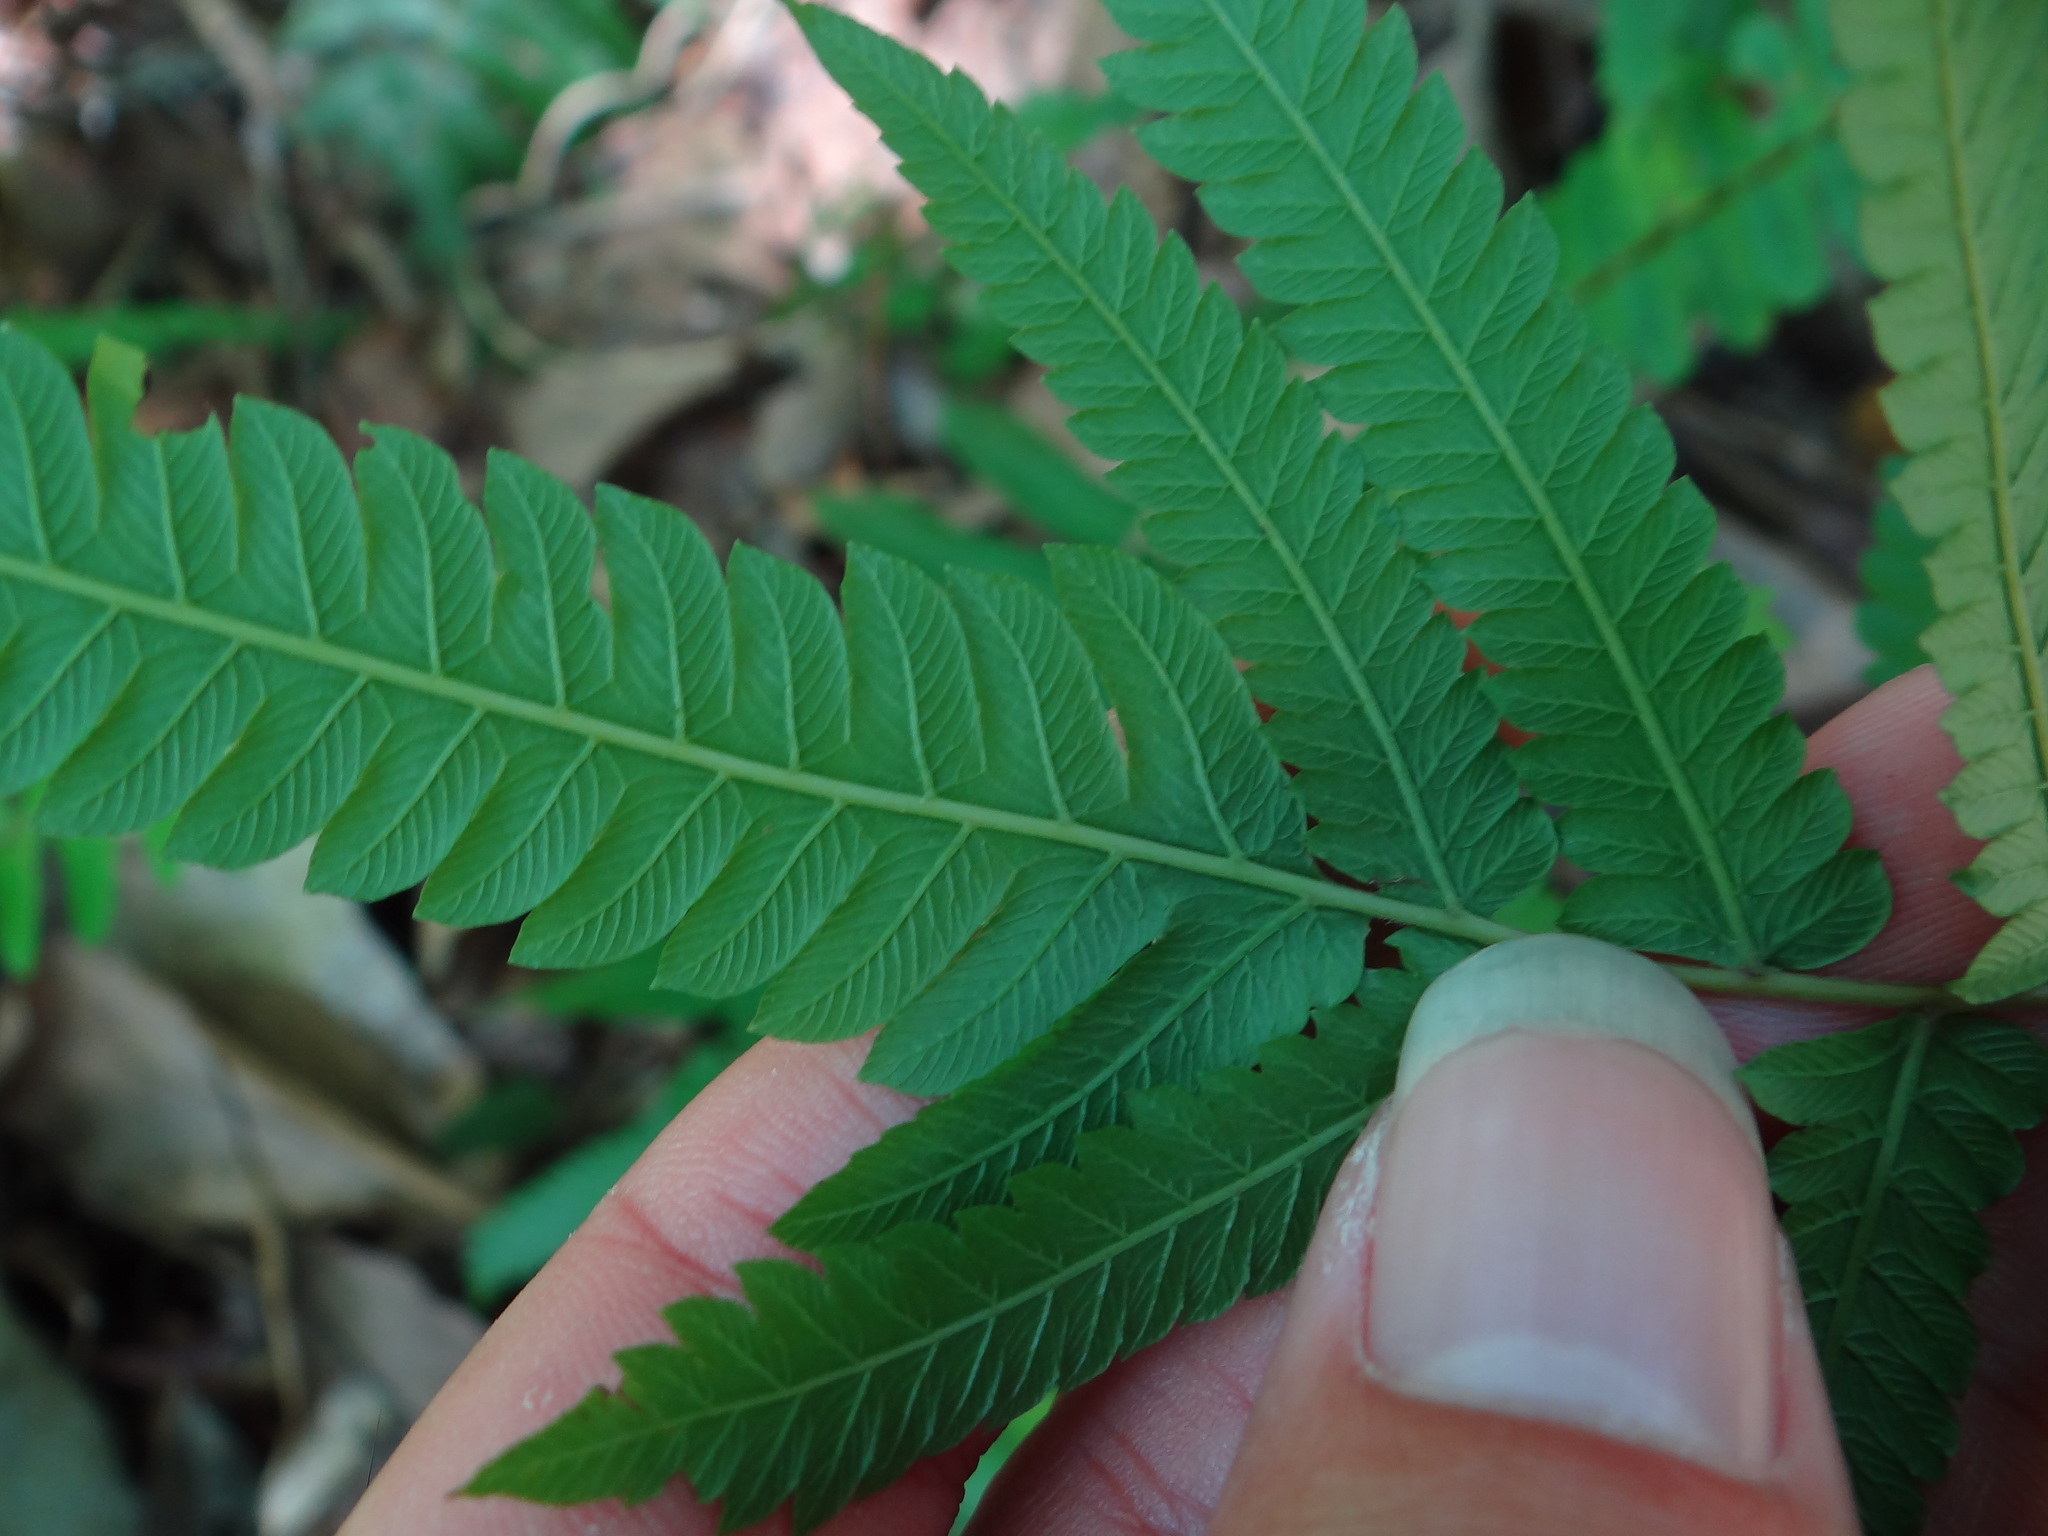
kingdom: Plantae
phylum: Tracheophyta
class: Polypodiopsida
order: Polypodiales
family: Thelypteridaceae
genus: Christella
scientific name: Christella acuminata
